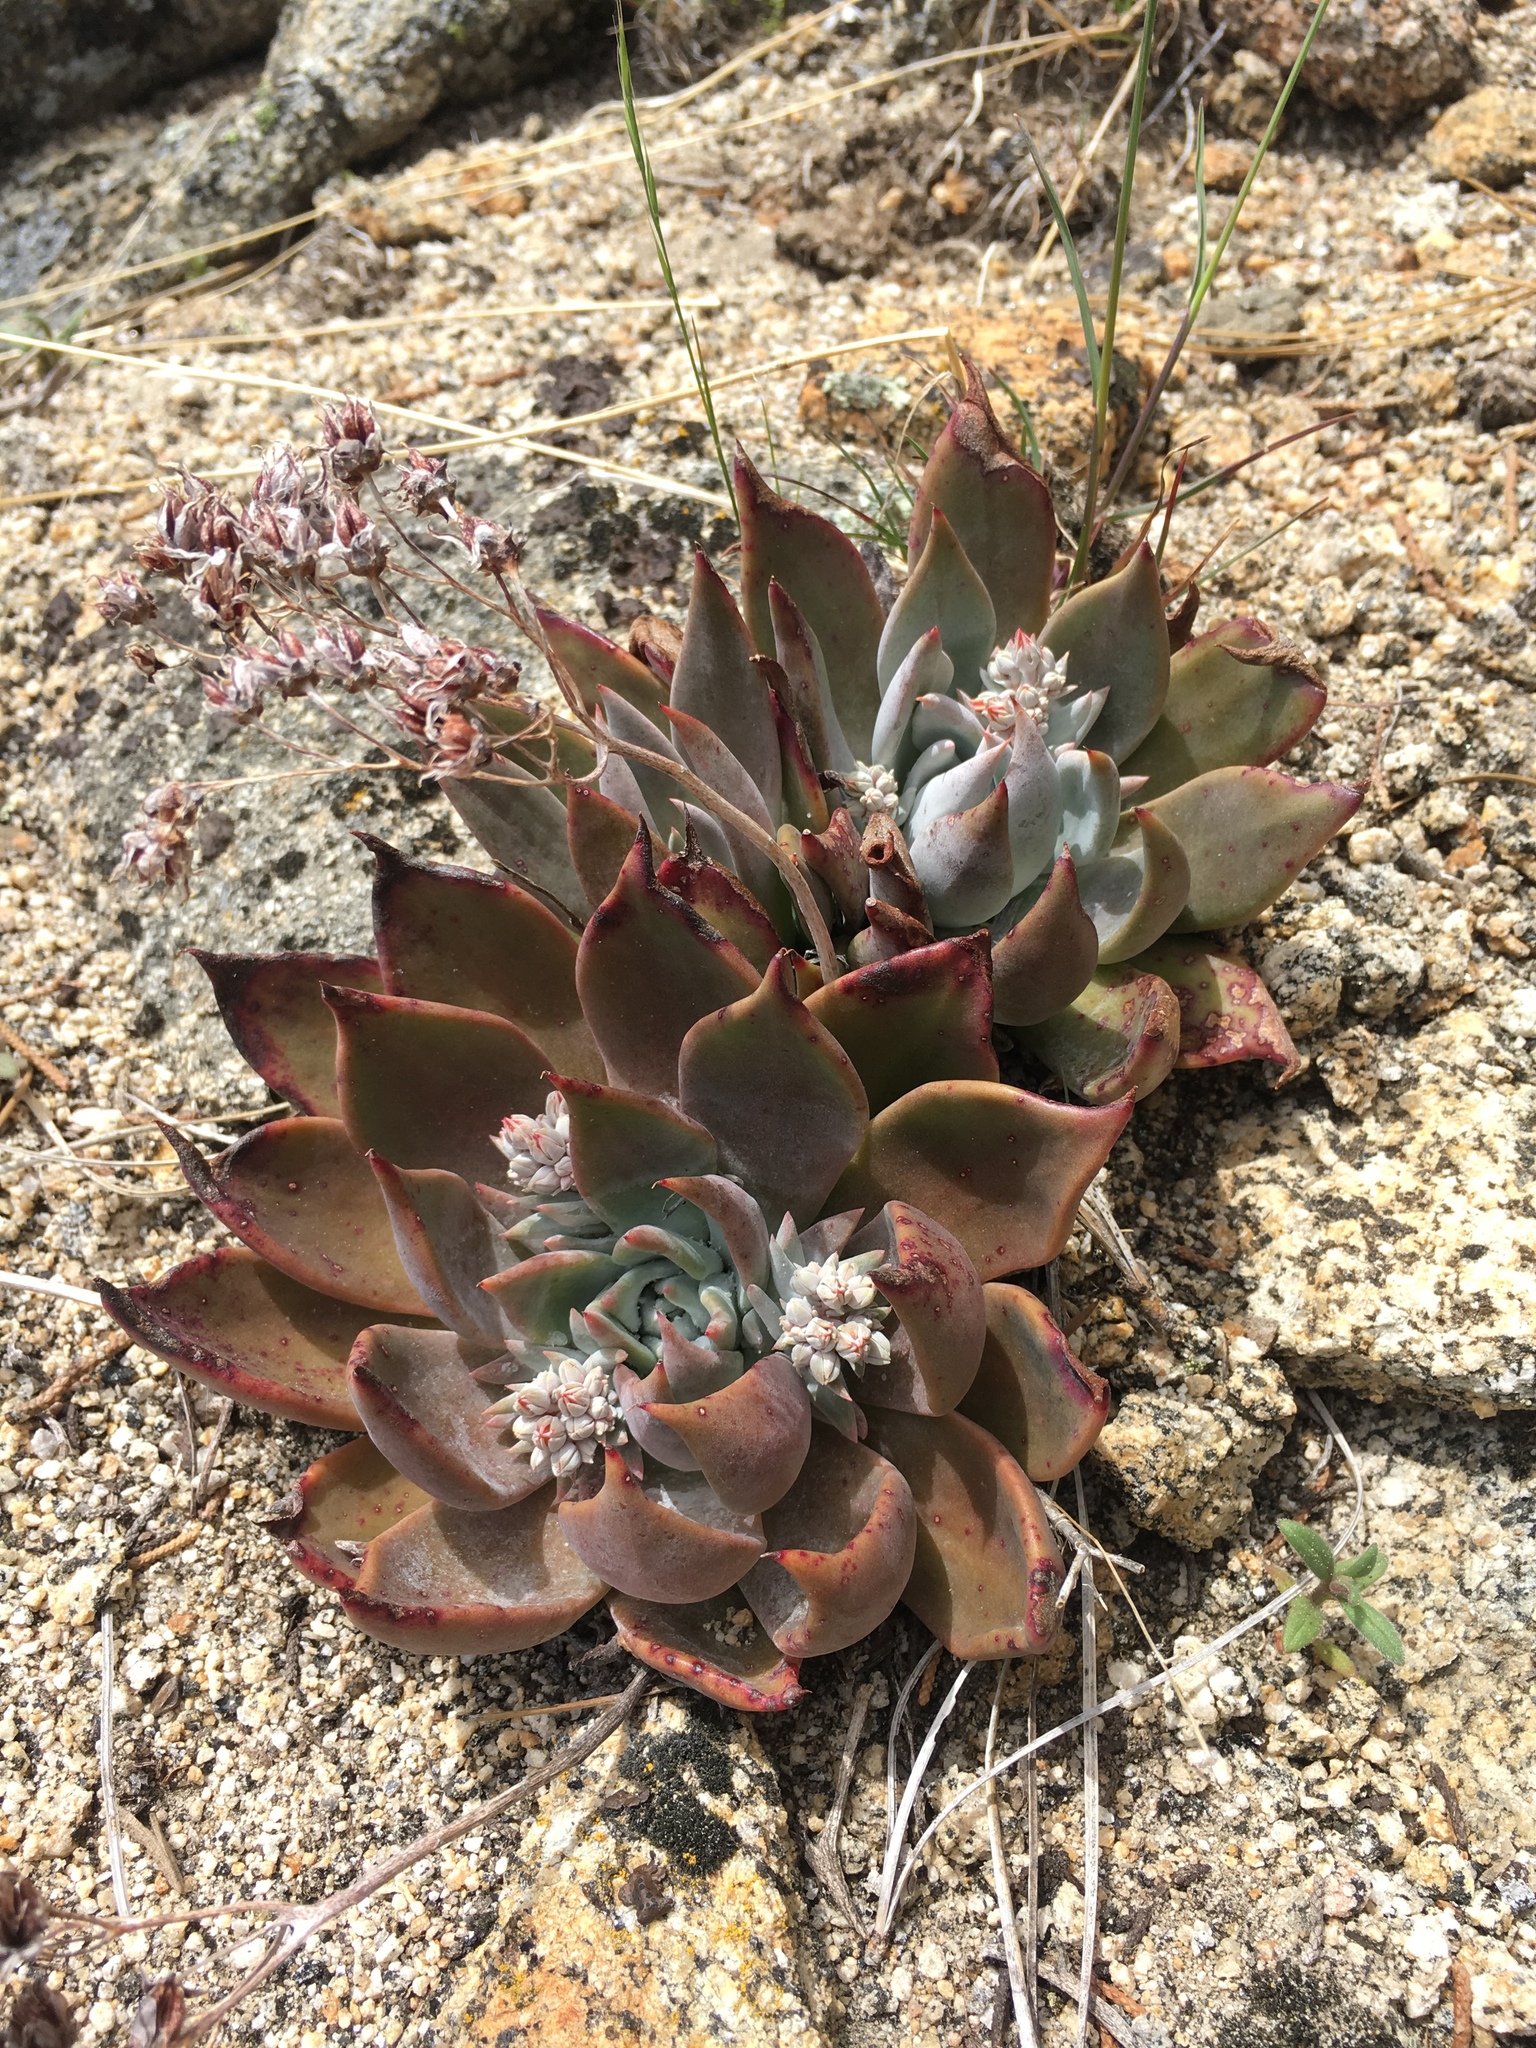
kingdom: Plantae
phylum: Tracheophyta
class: Magnoliopsida
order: Saxifragales
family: Crassulaceae
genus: Dudleya
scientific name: Dudleya cymosa
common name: Canyon dudleya
